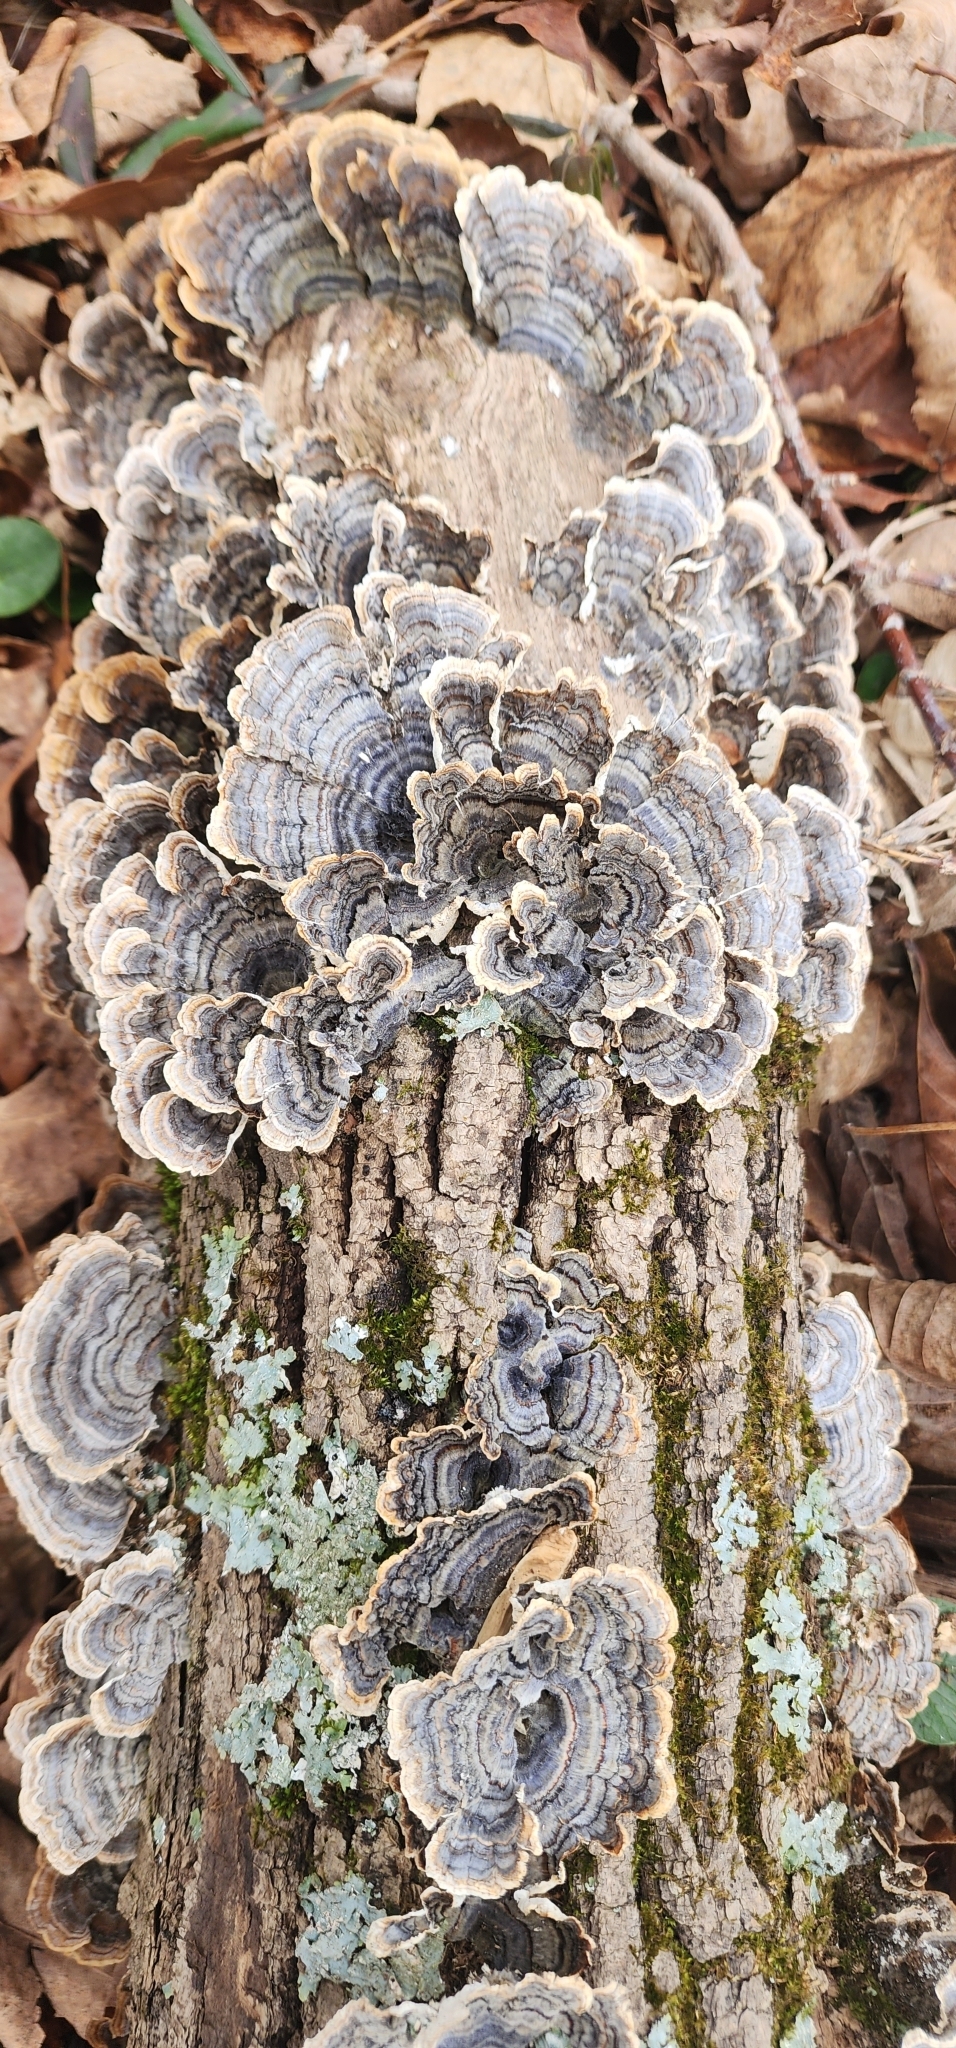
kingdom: Fungi
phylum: Basidiomycota
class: Agaricomycetes
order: Polyporales
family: Polyporaceae
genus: Trametes
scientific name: Trametes versicolor
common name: Turkeytail
